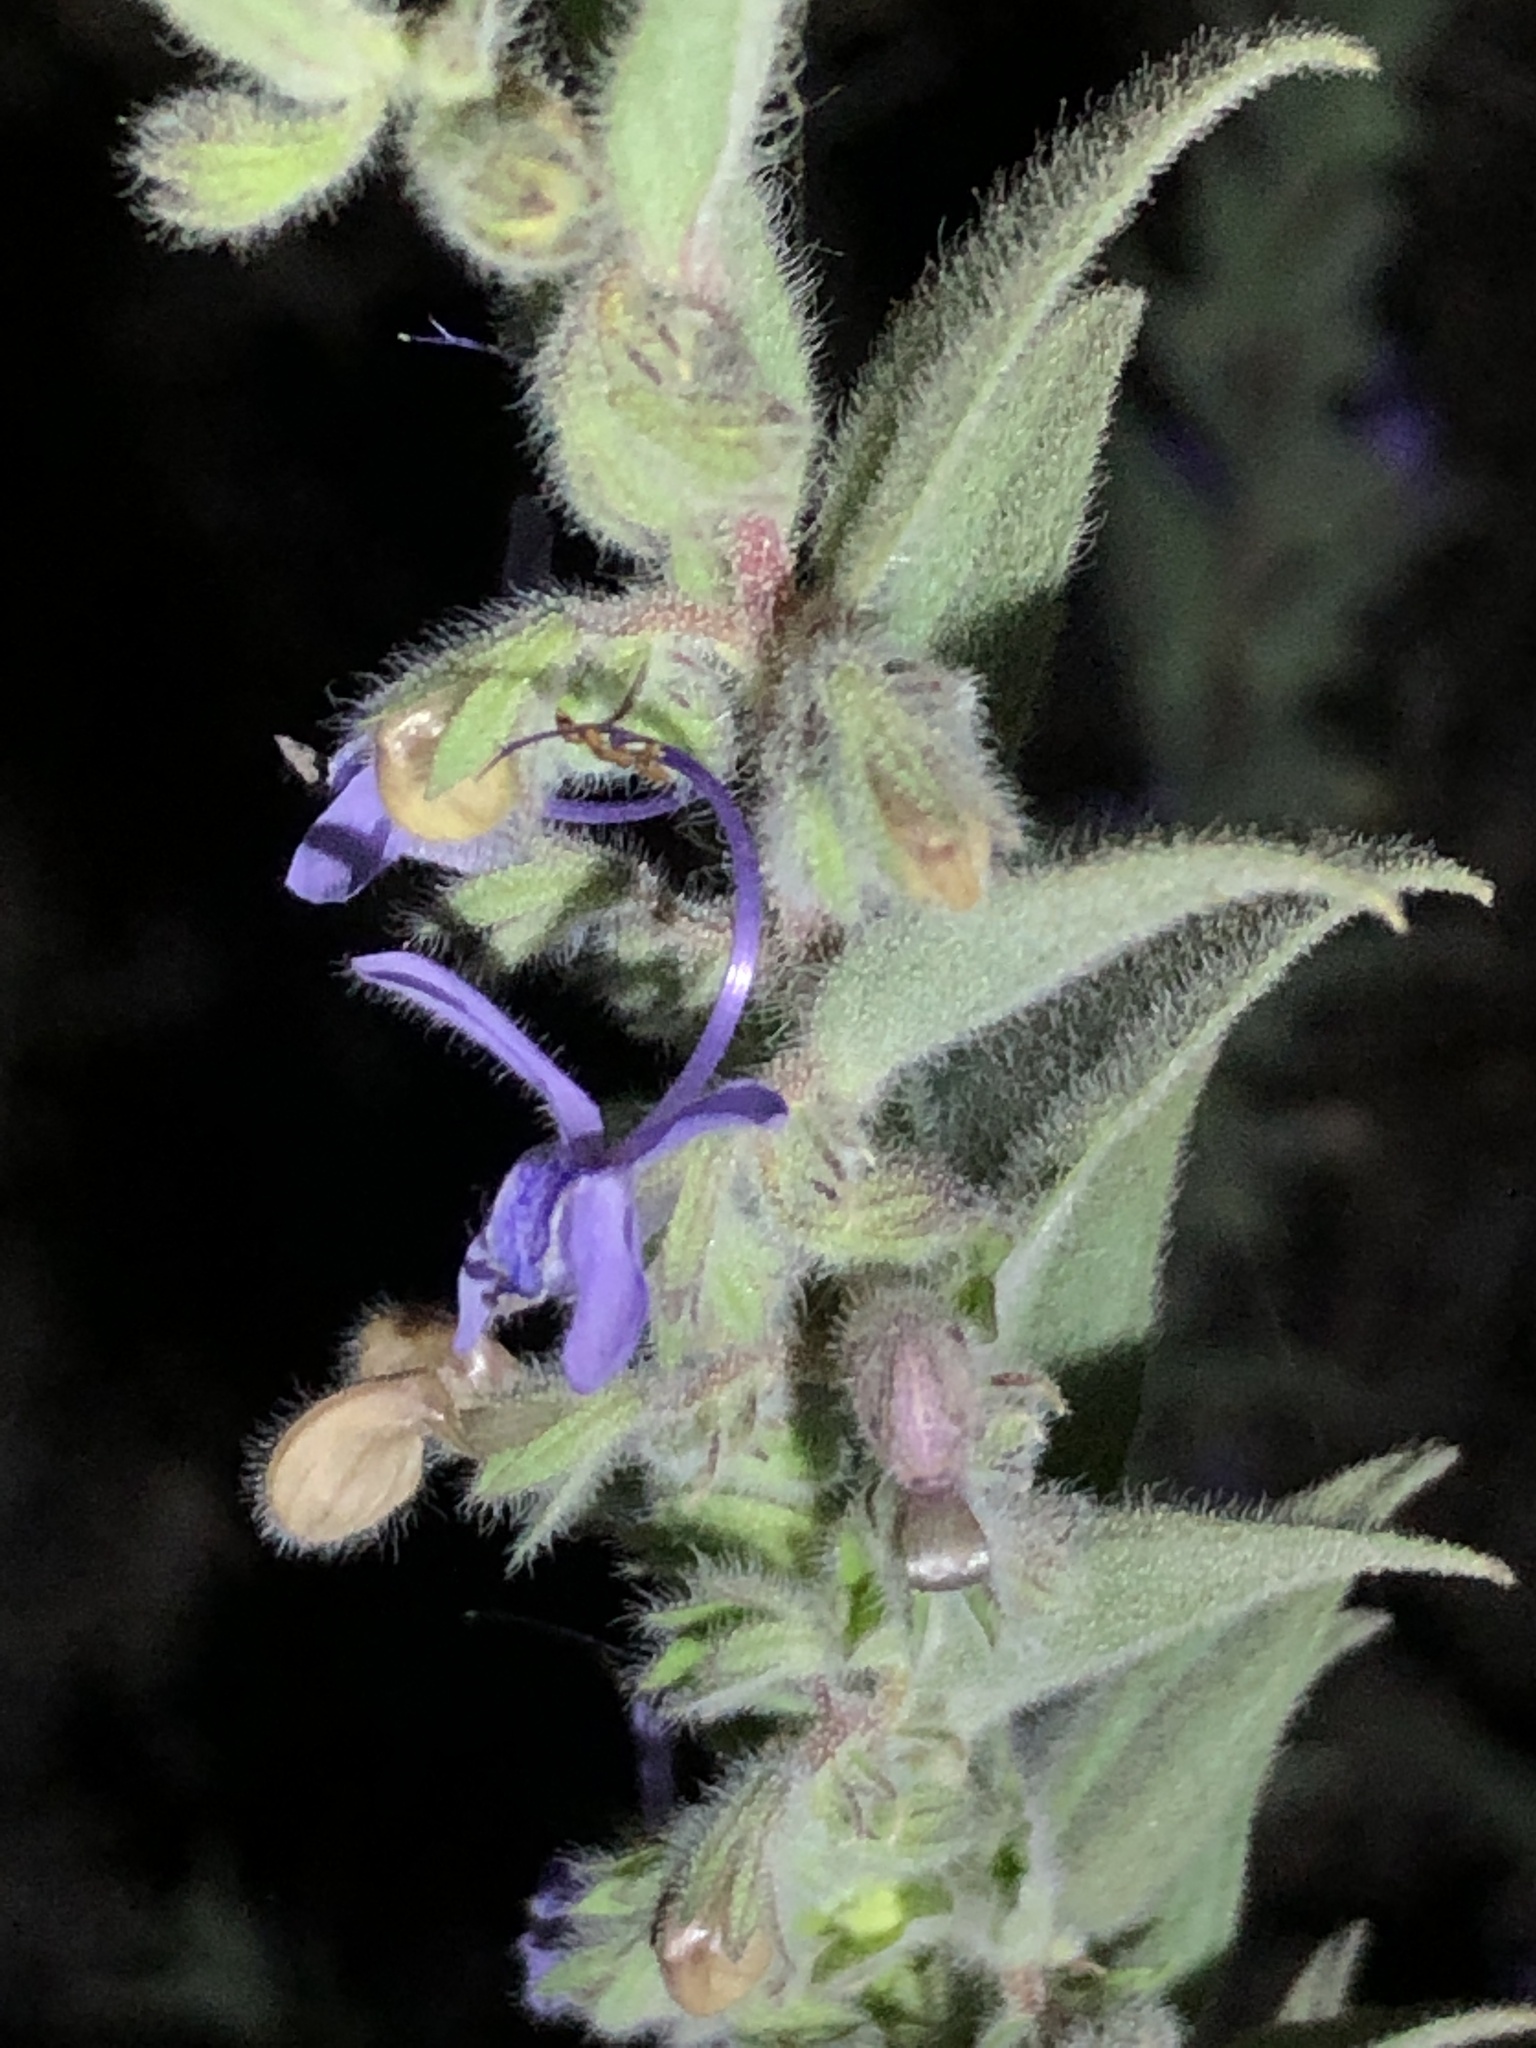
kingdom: Plantae
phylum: Tracheophyta
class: Magnoliopsida
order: Lamiales
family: Lamiaceae
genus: Trichostema
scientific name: Trichostema lanceolatum
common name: Vinegar-weed
